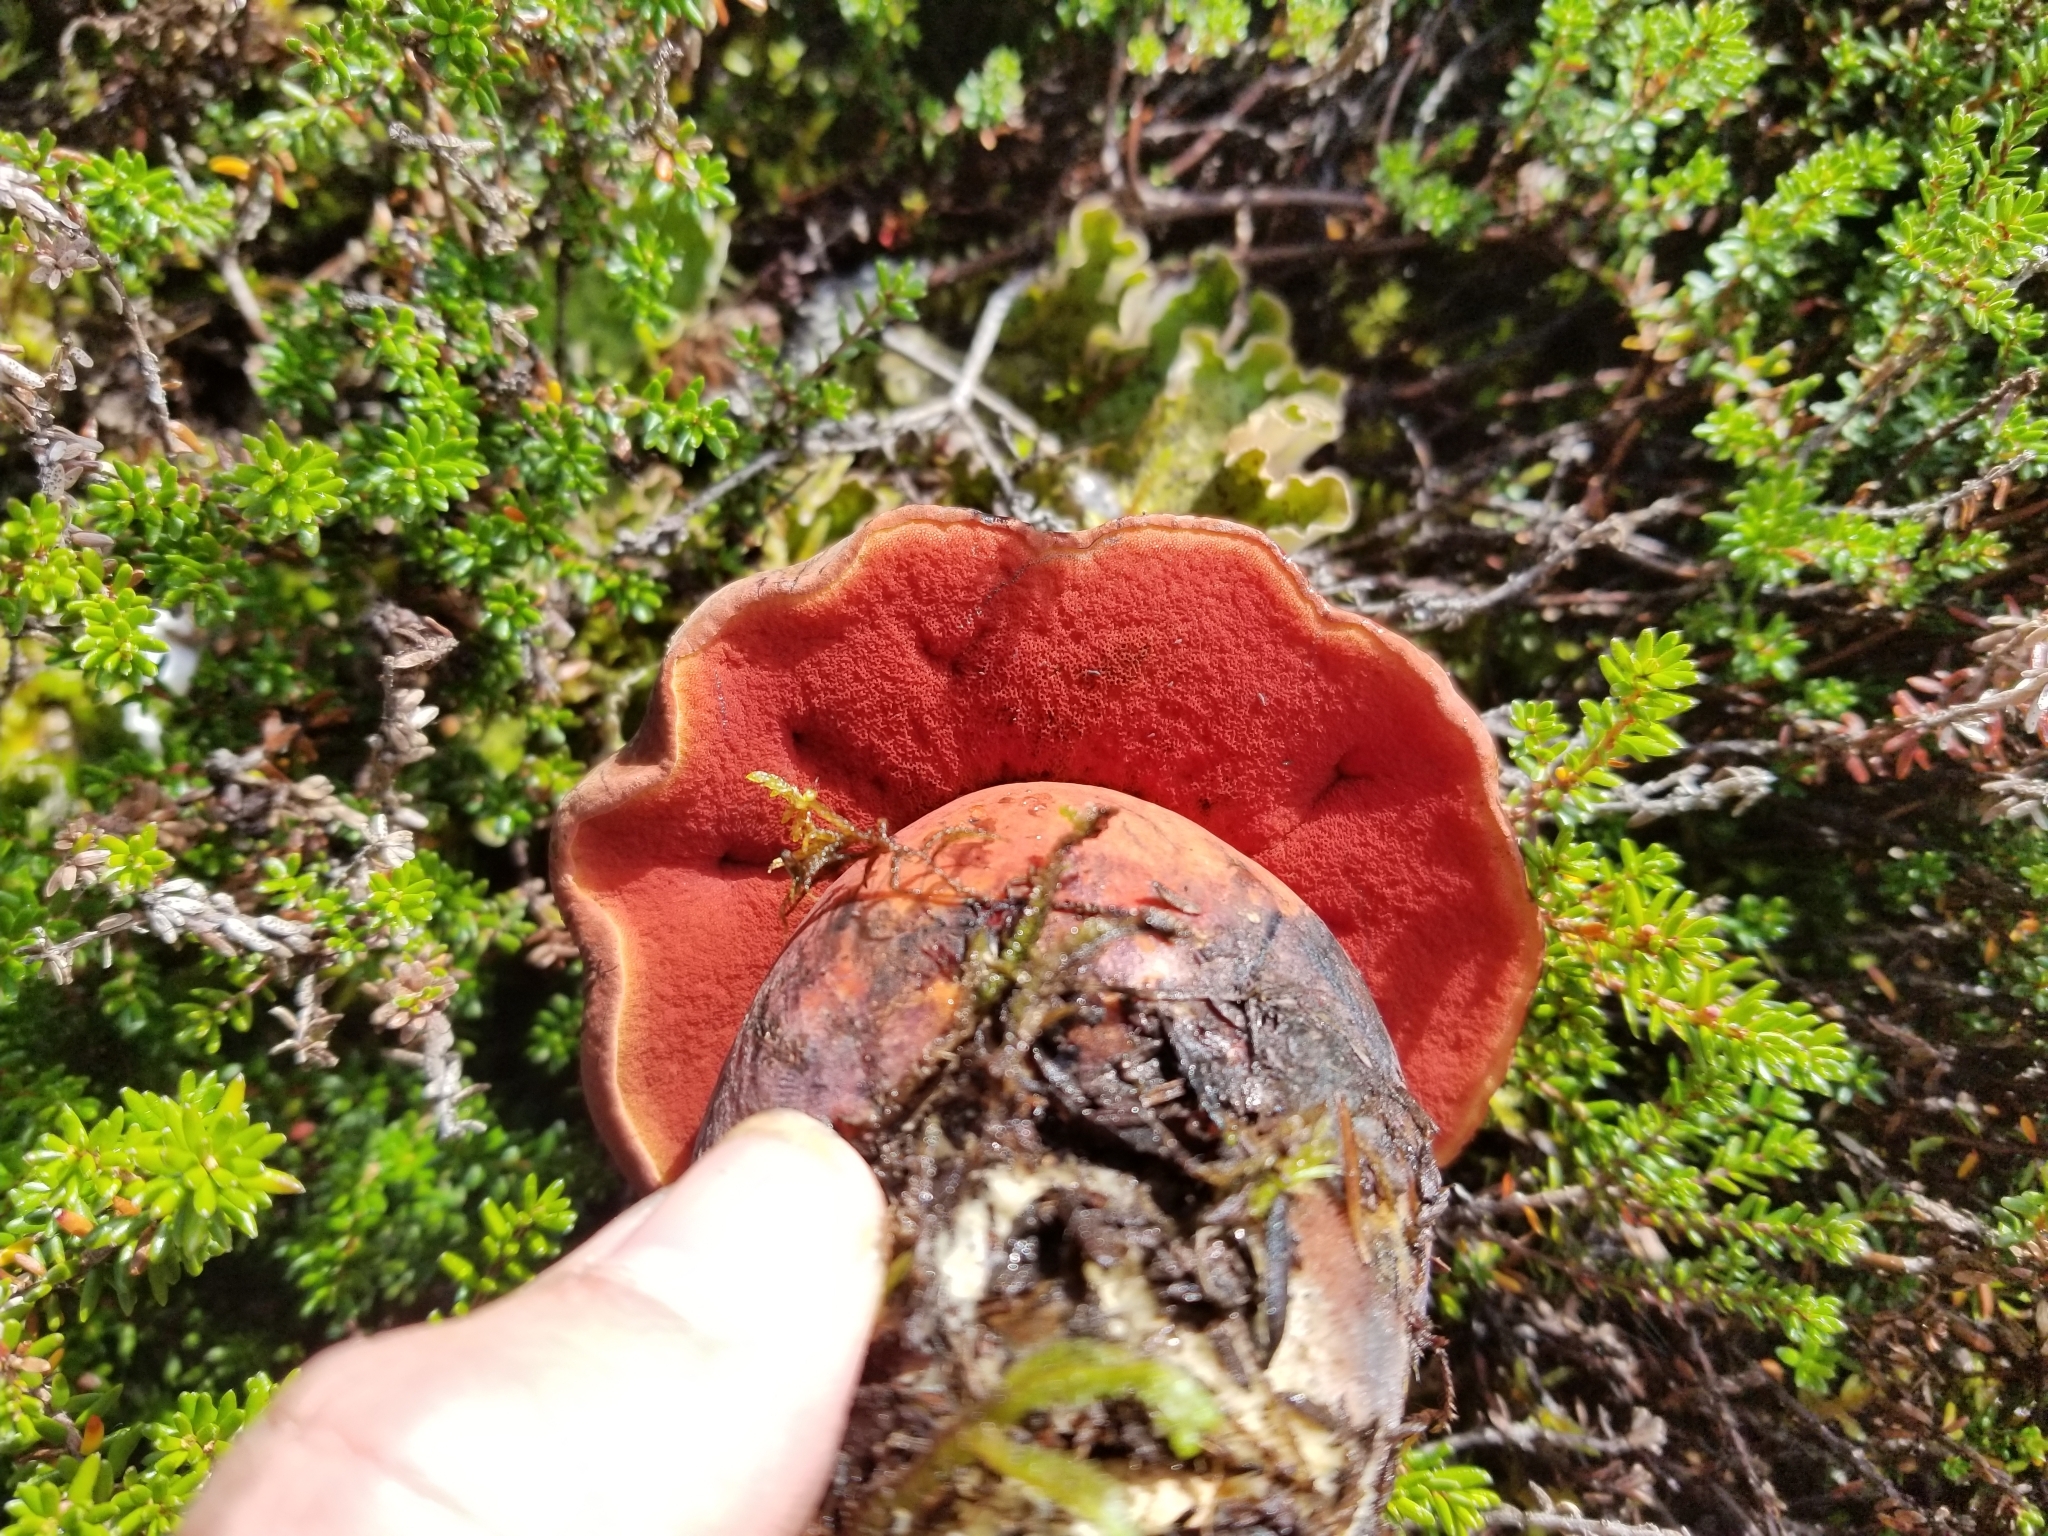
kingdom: Fungi
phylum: Basidiomycota
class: Agaricomycetes
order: Boletales
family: Boletaceae
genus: Neoboletus
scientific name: Neoboletus luridiformis
